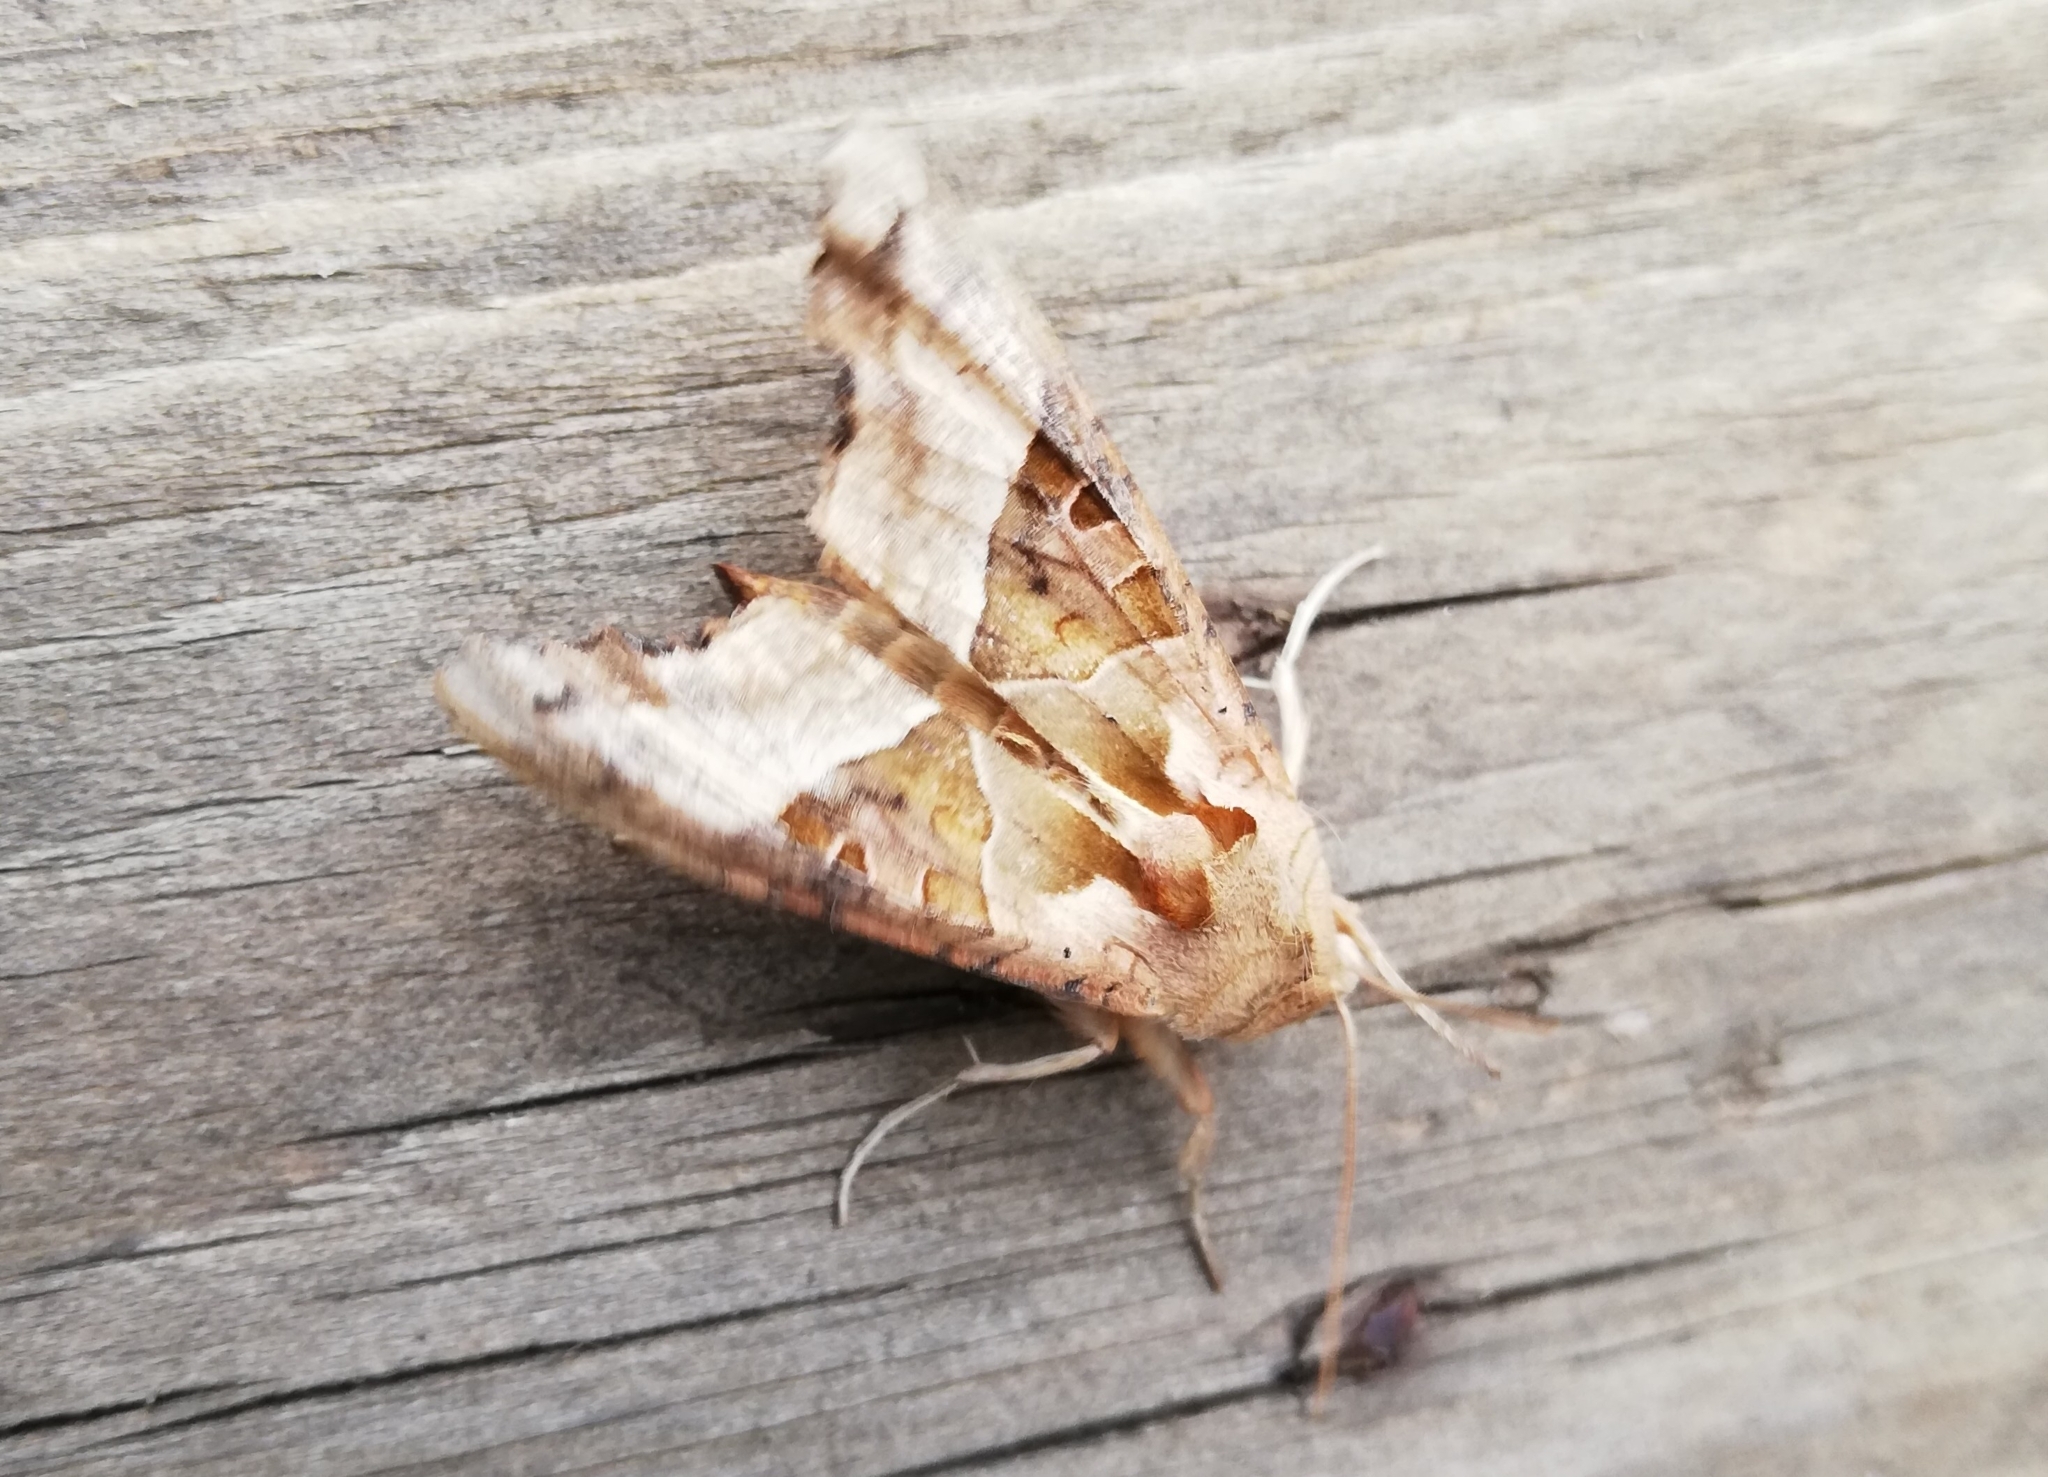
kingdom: Animalia
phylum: Arthropoda
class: Insecta
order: Lepidoptera
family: Noctuidae
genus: Phlogophora
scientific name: Phlogophora meticulosa
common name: Angle shades
